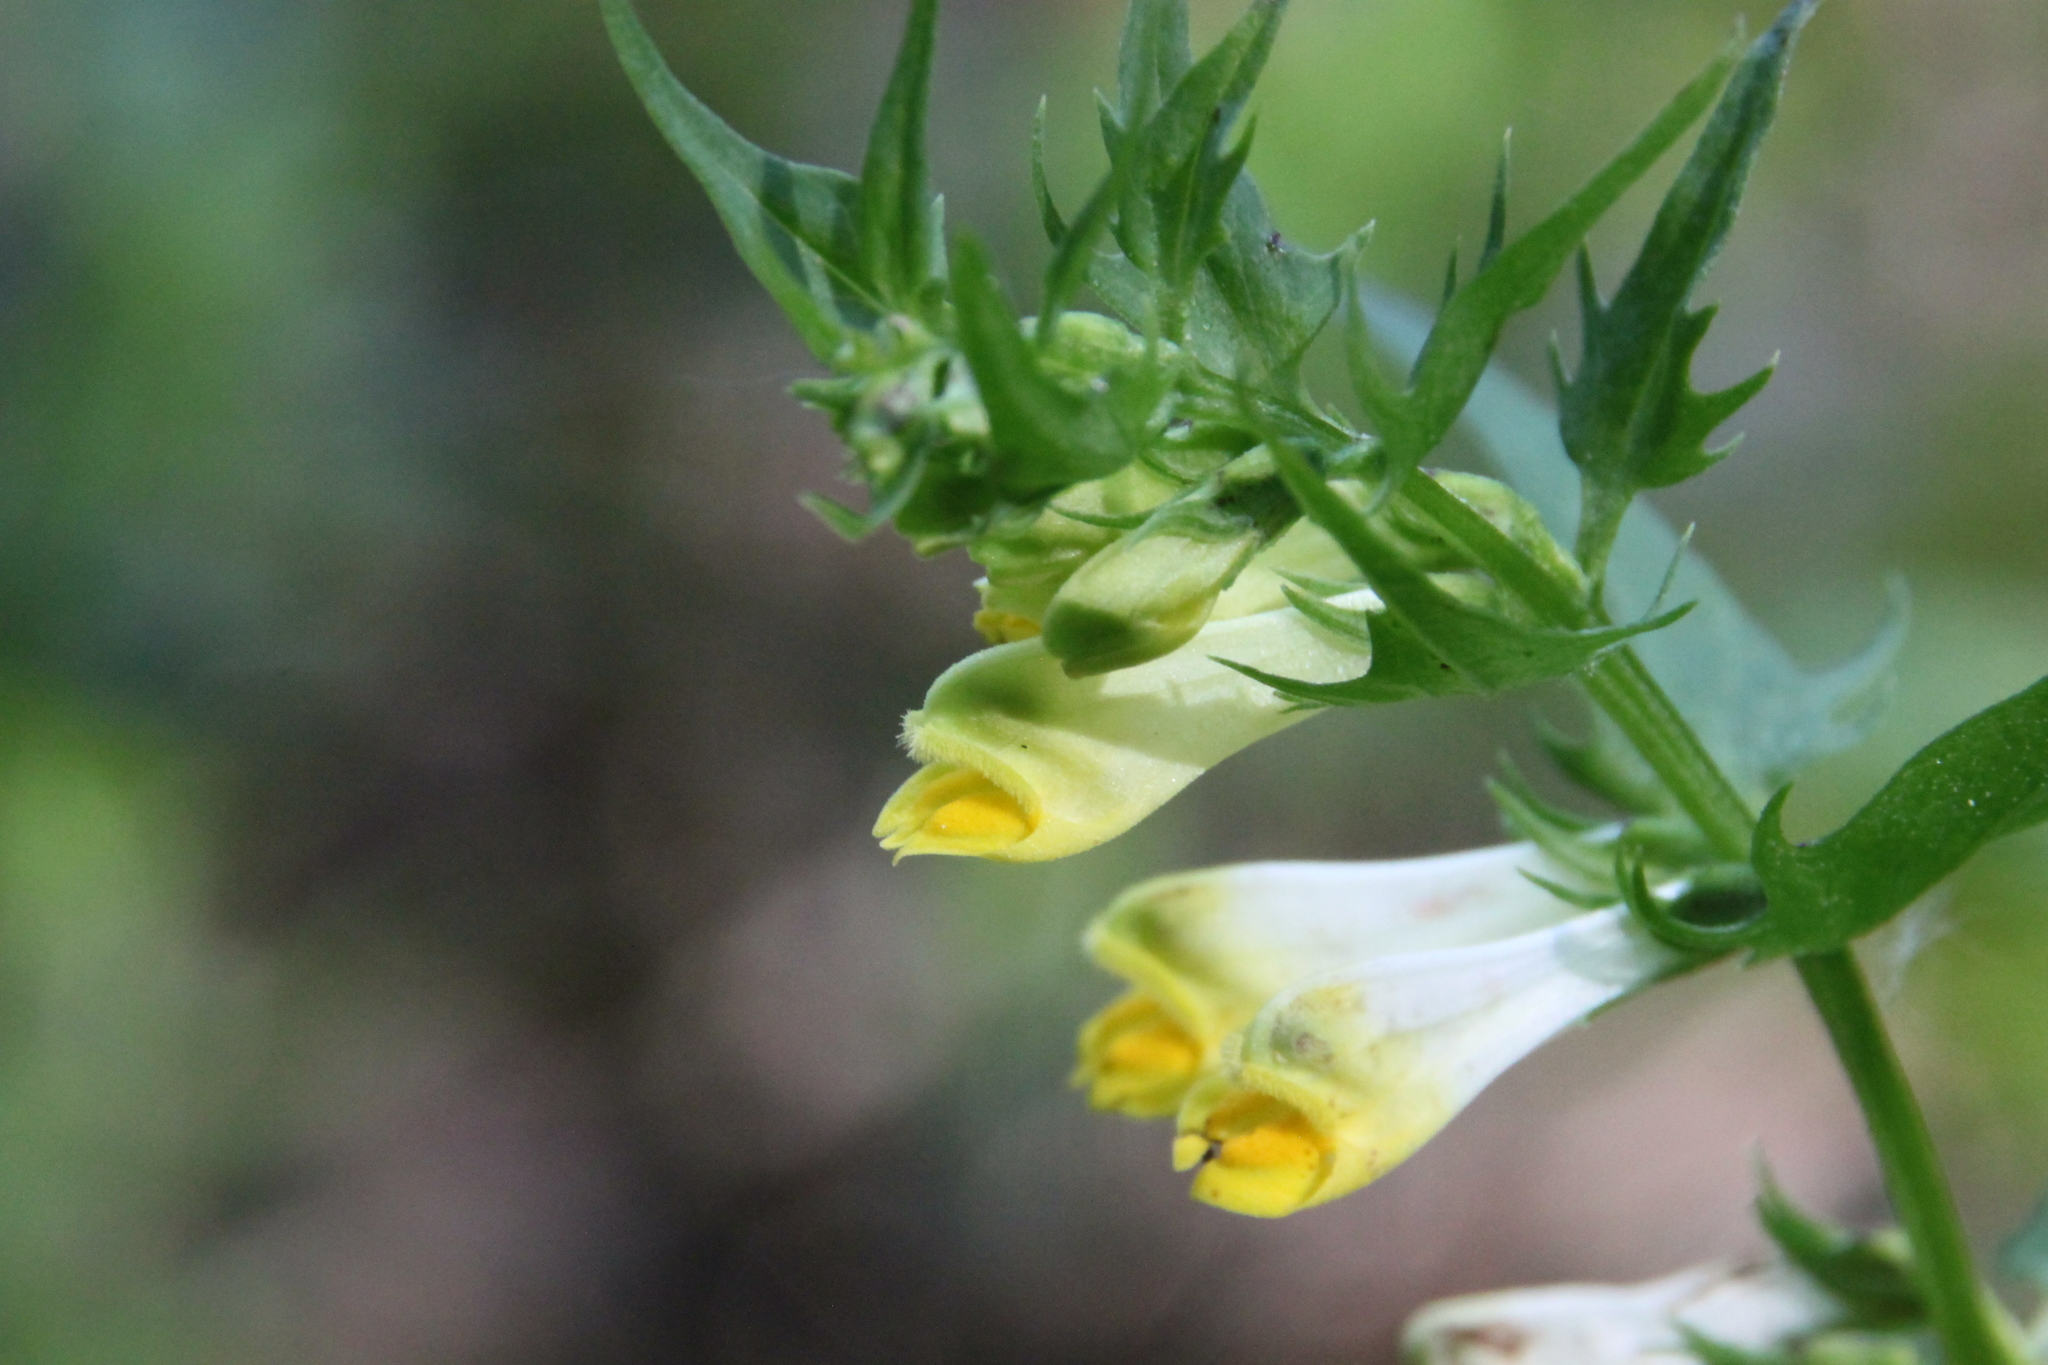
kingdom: Plantae
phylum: Tracheophyta
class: Magnoliopsida
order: Lamiales
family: Orobanchaceae
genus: Melampyrum
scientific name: Melampyrum pratense
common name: Common cow-wheat
